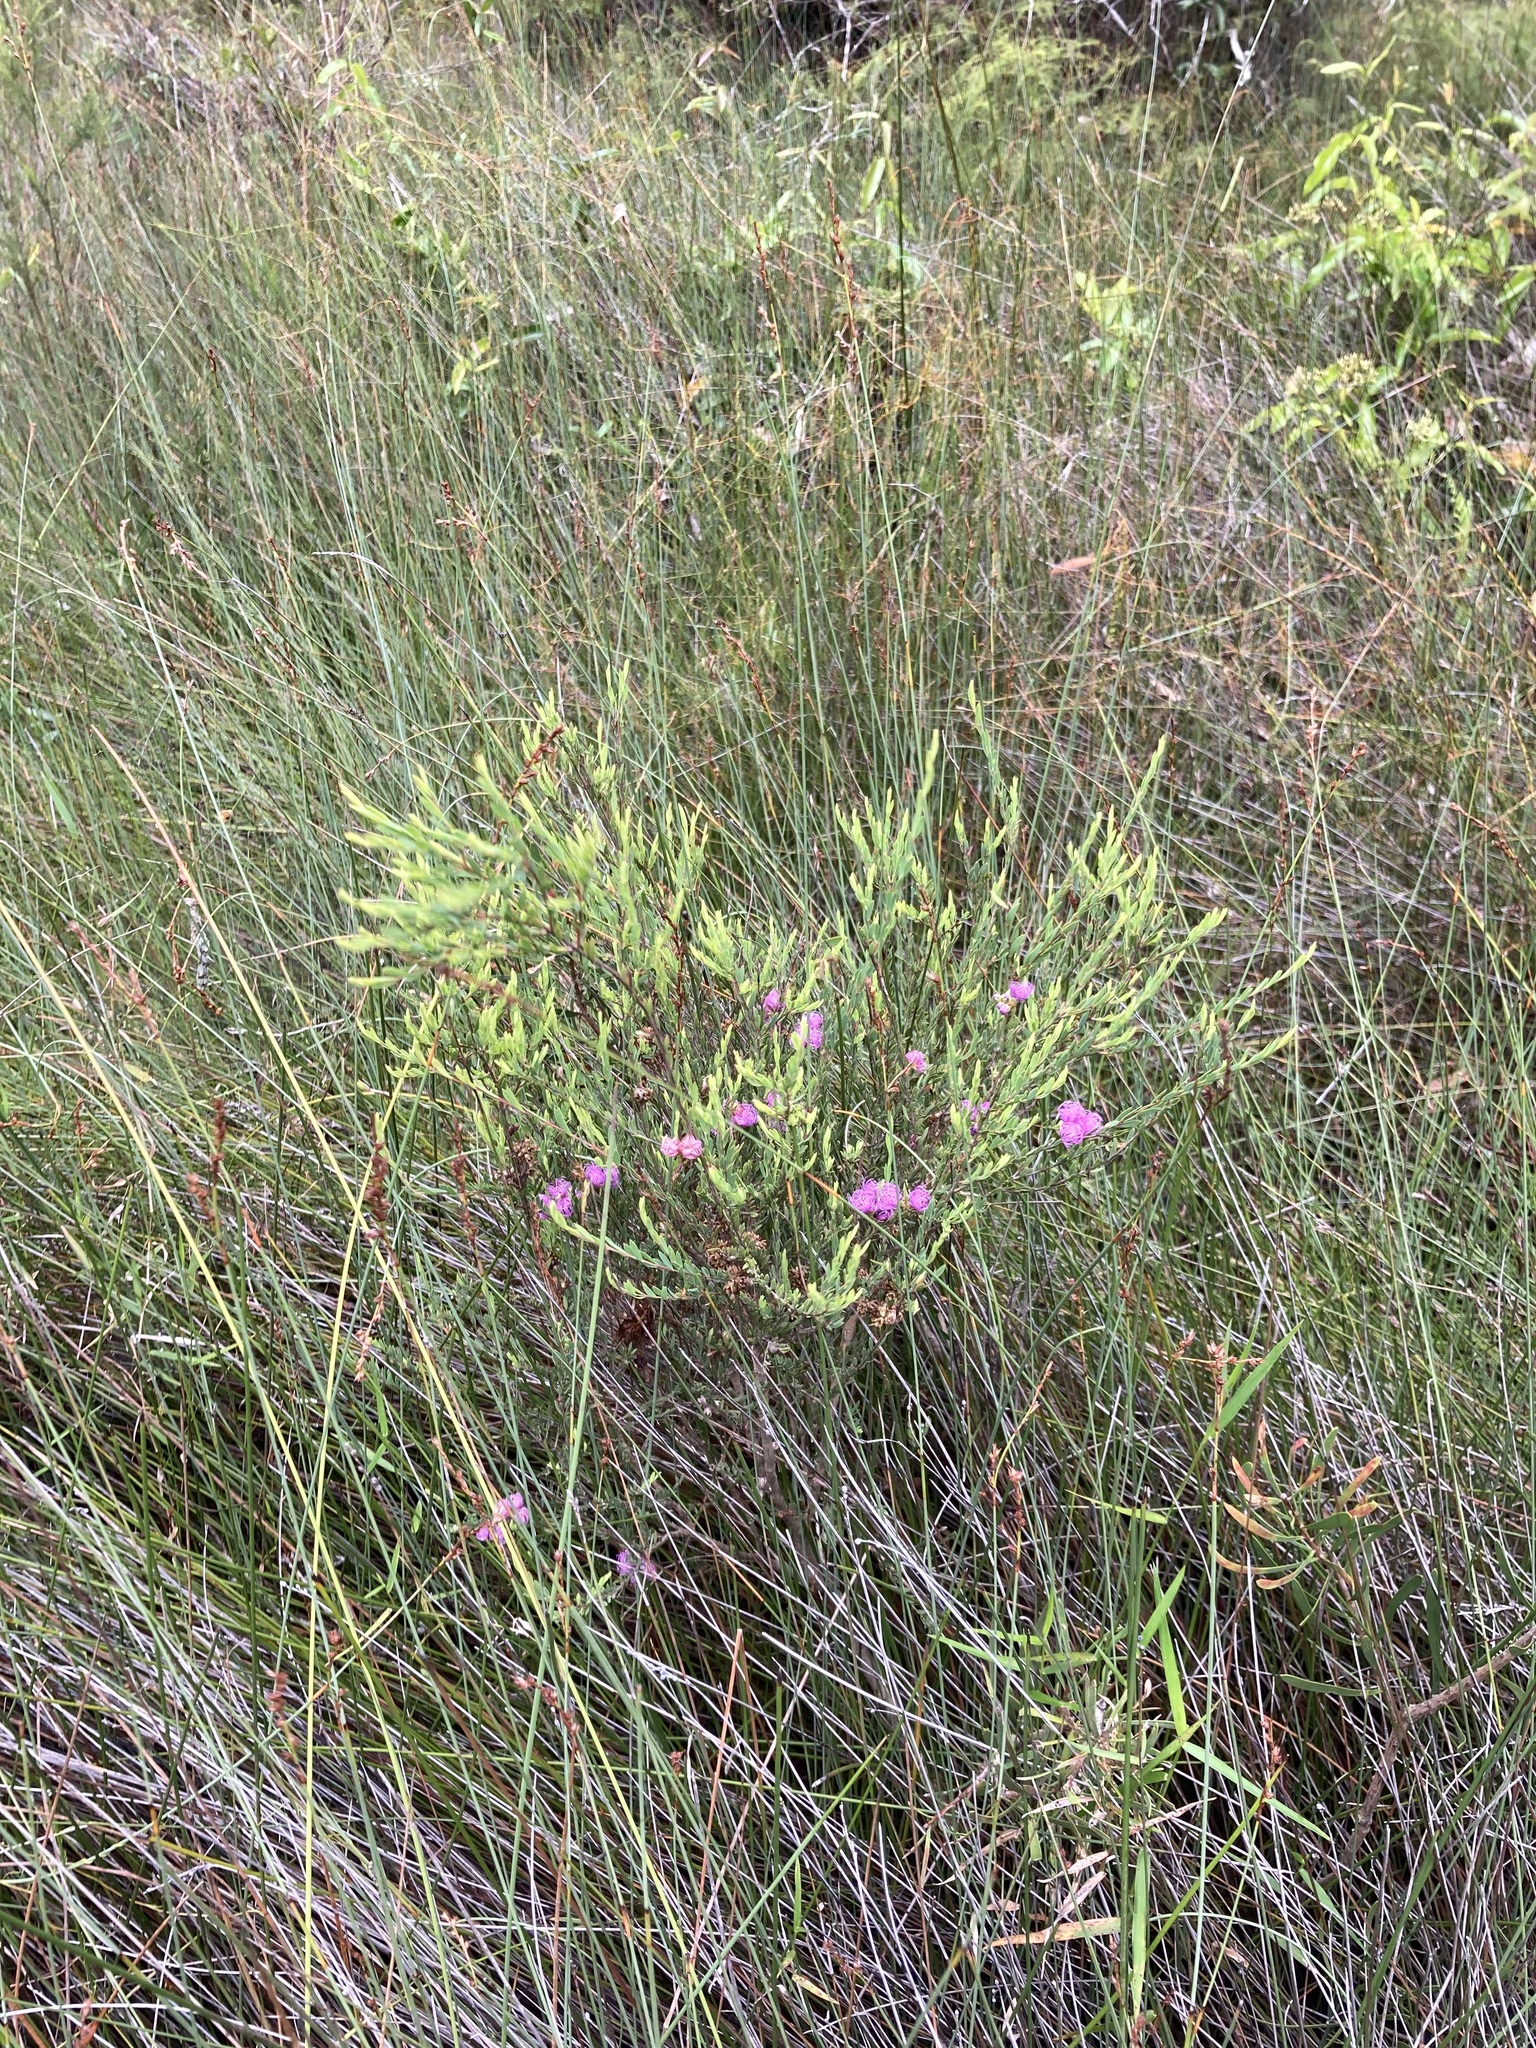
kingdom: Plantae
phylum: Tracheophyta
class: Magnoliopsida
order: Myrtales
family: Myrtaceae
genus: Melaleuca
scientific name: Melaleuca thymifolia
